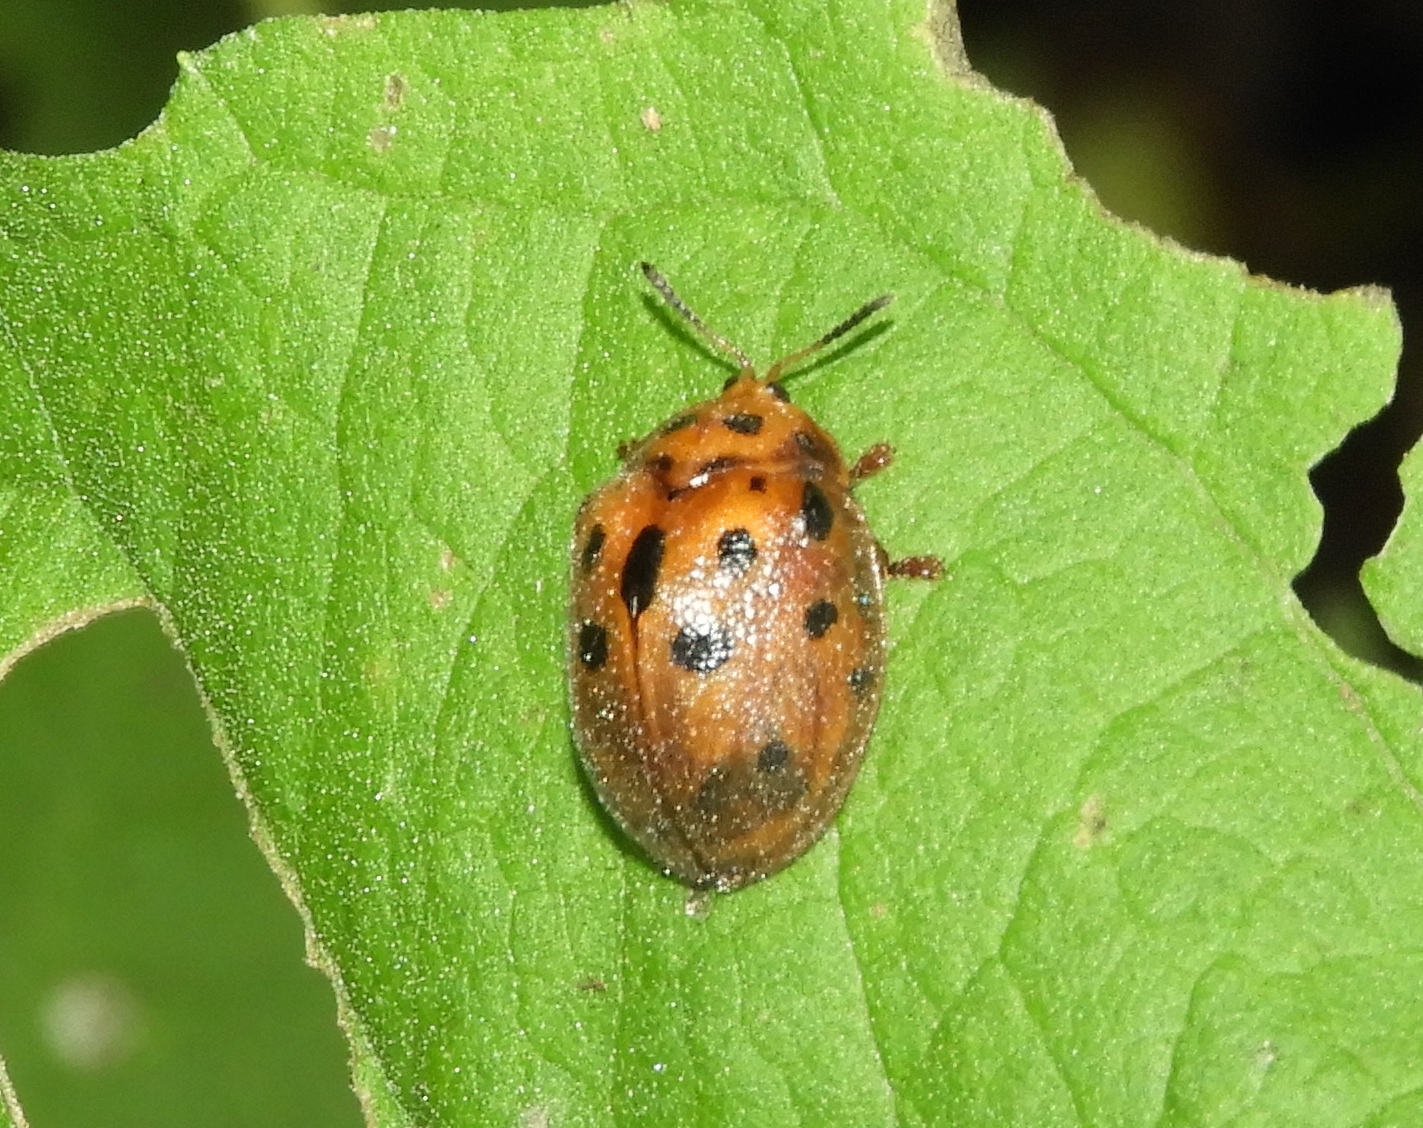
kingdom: Animalia
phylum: Arthropoda
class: Insecta
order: Coleoptera
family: Chrysomelidae
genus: Chelymorpha
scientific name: Chelymorpha cassidea
